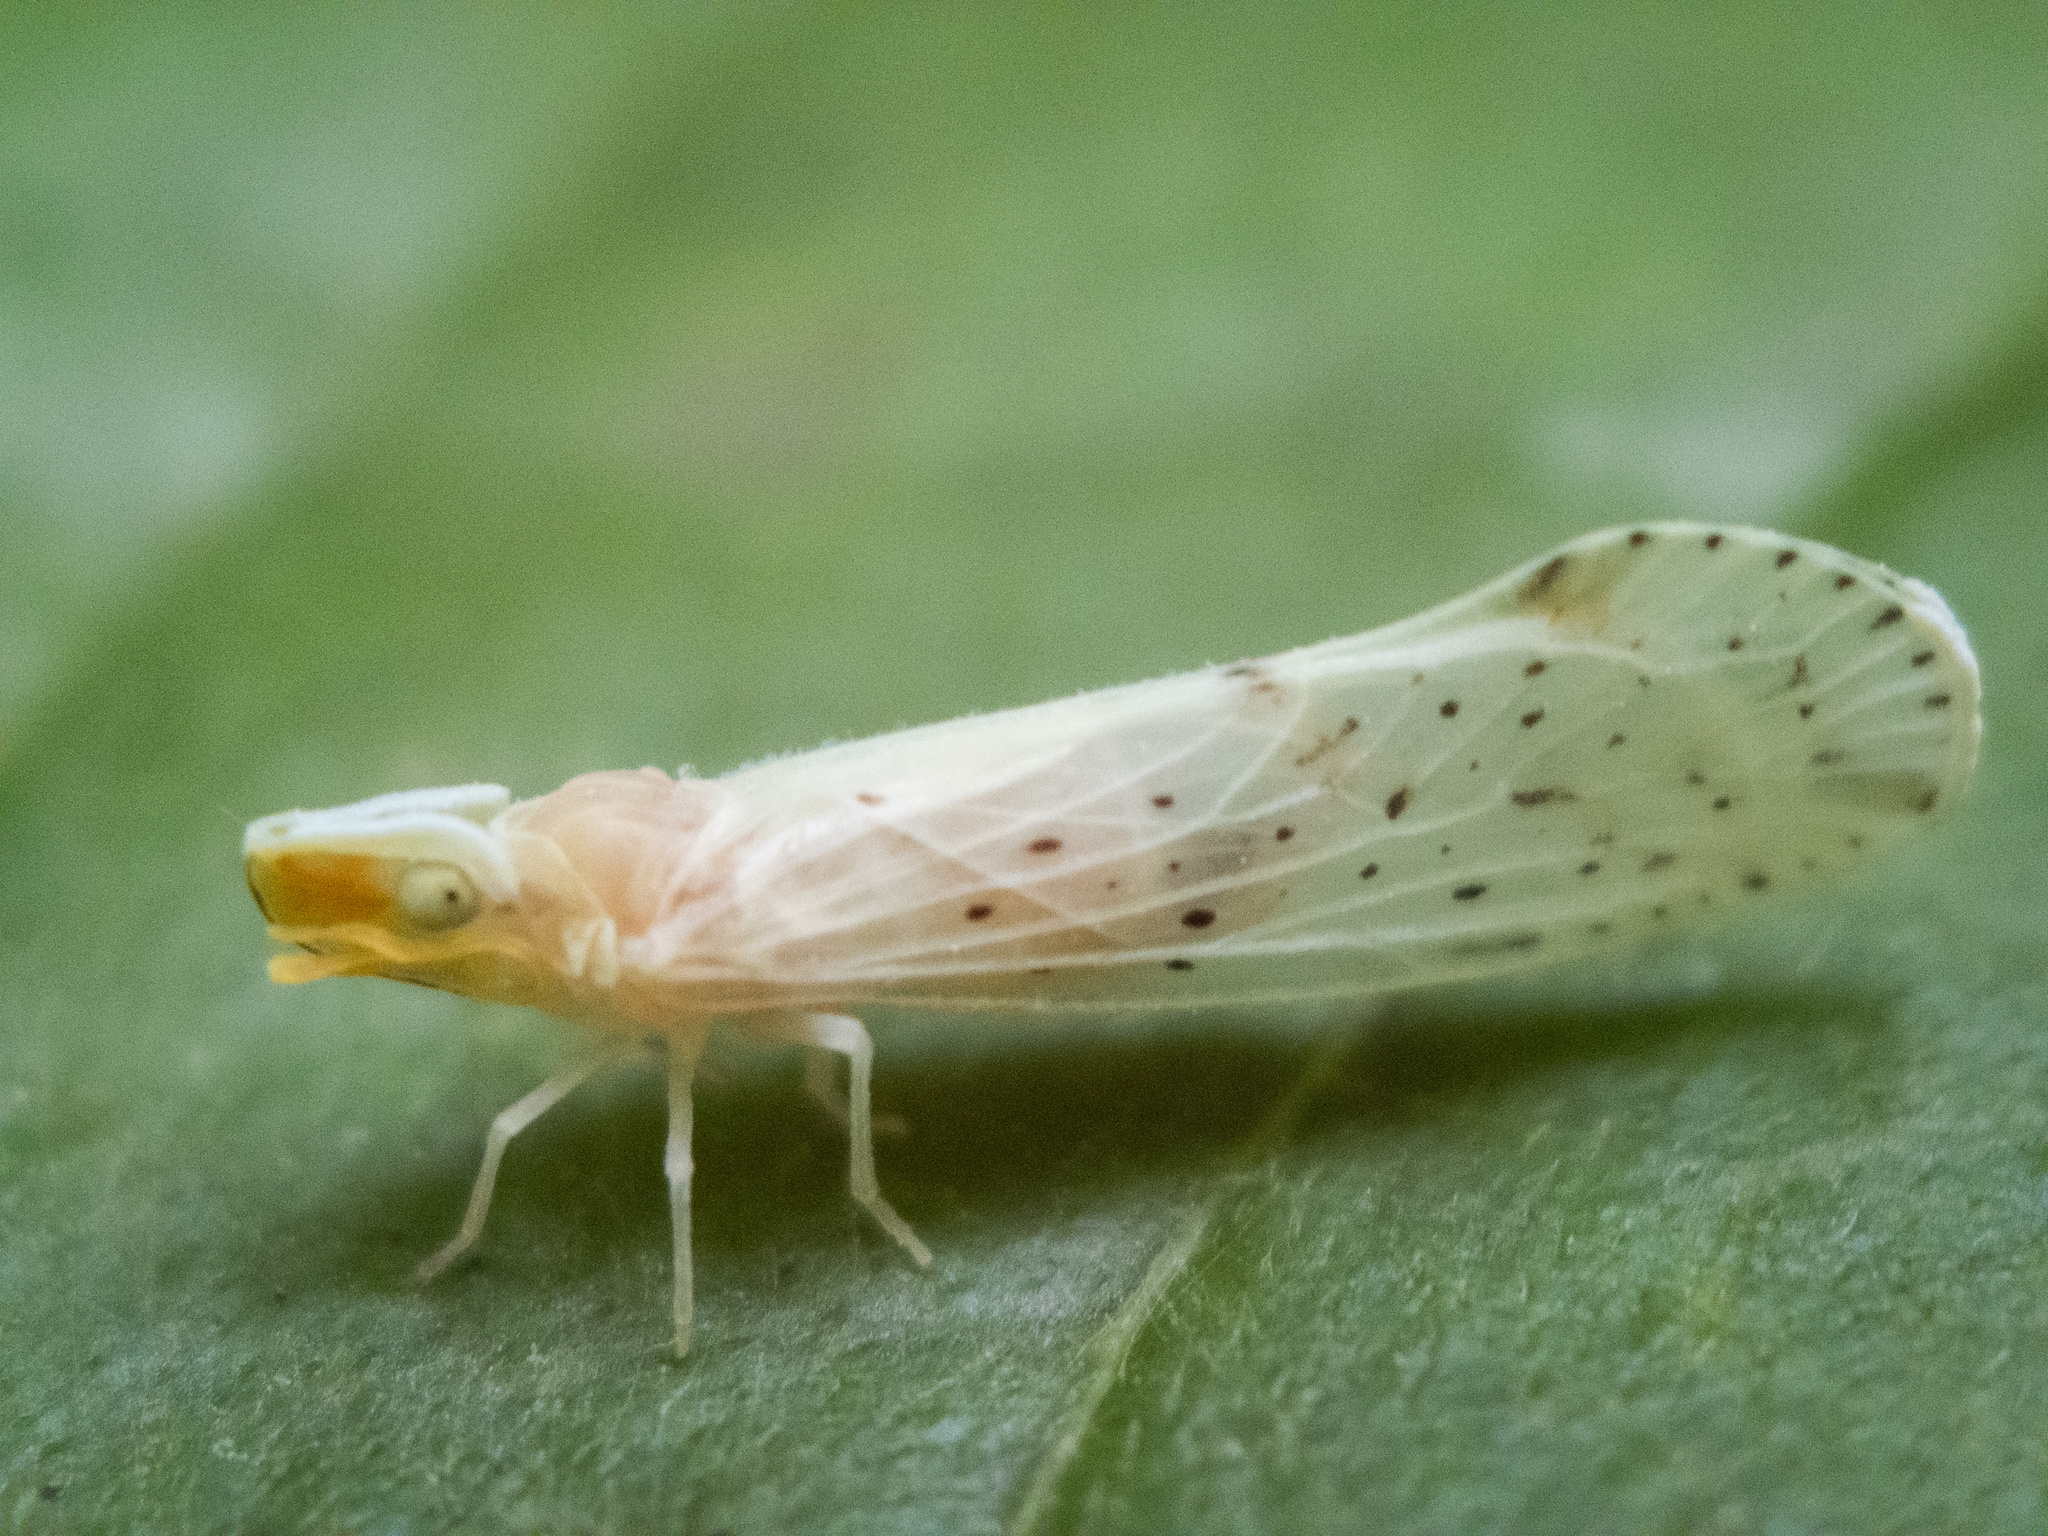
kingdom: Animalia
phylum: Arthropoda
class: Insecta
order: Hemiptera
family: Derbidae
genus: Otiocerus
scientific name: Otiocerus abbotii
